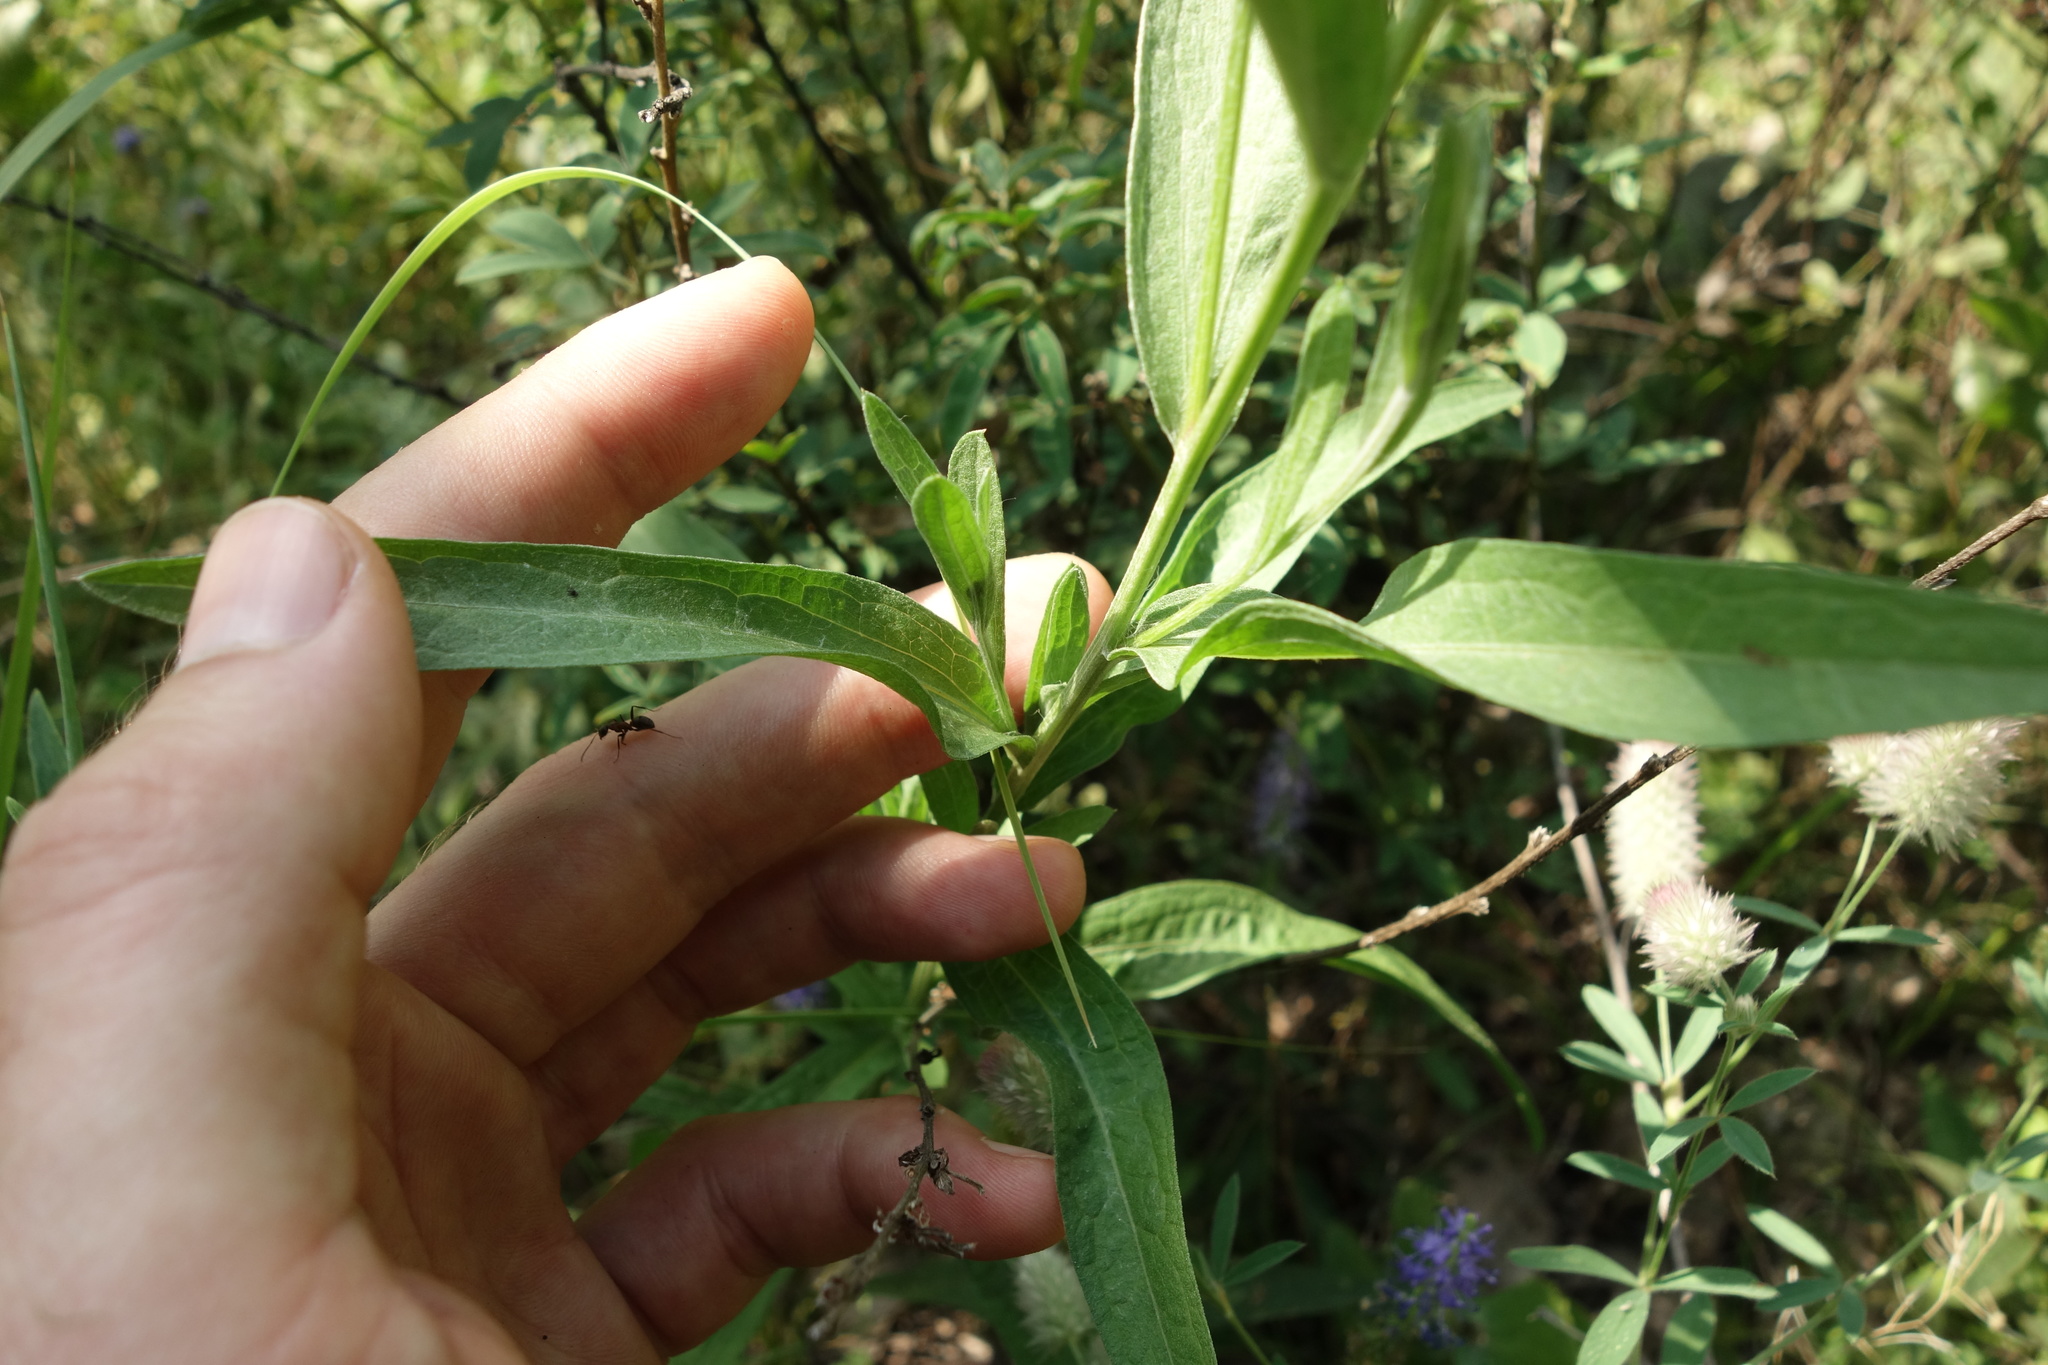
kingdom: Plantae
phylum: Tracheophyta
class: Magnoliopsida
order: Asterales
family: Asteraceae
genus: Centaurea
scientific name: Centaurea jacea
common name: Brown knapweed
